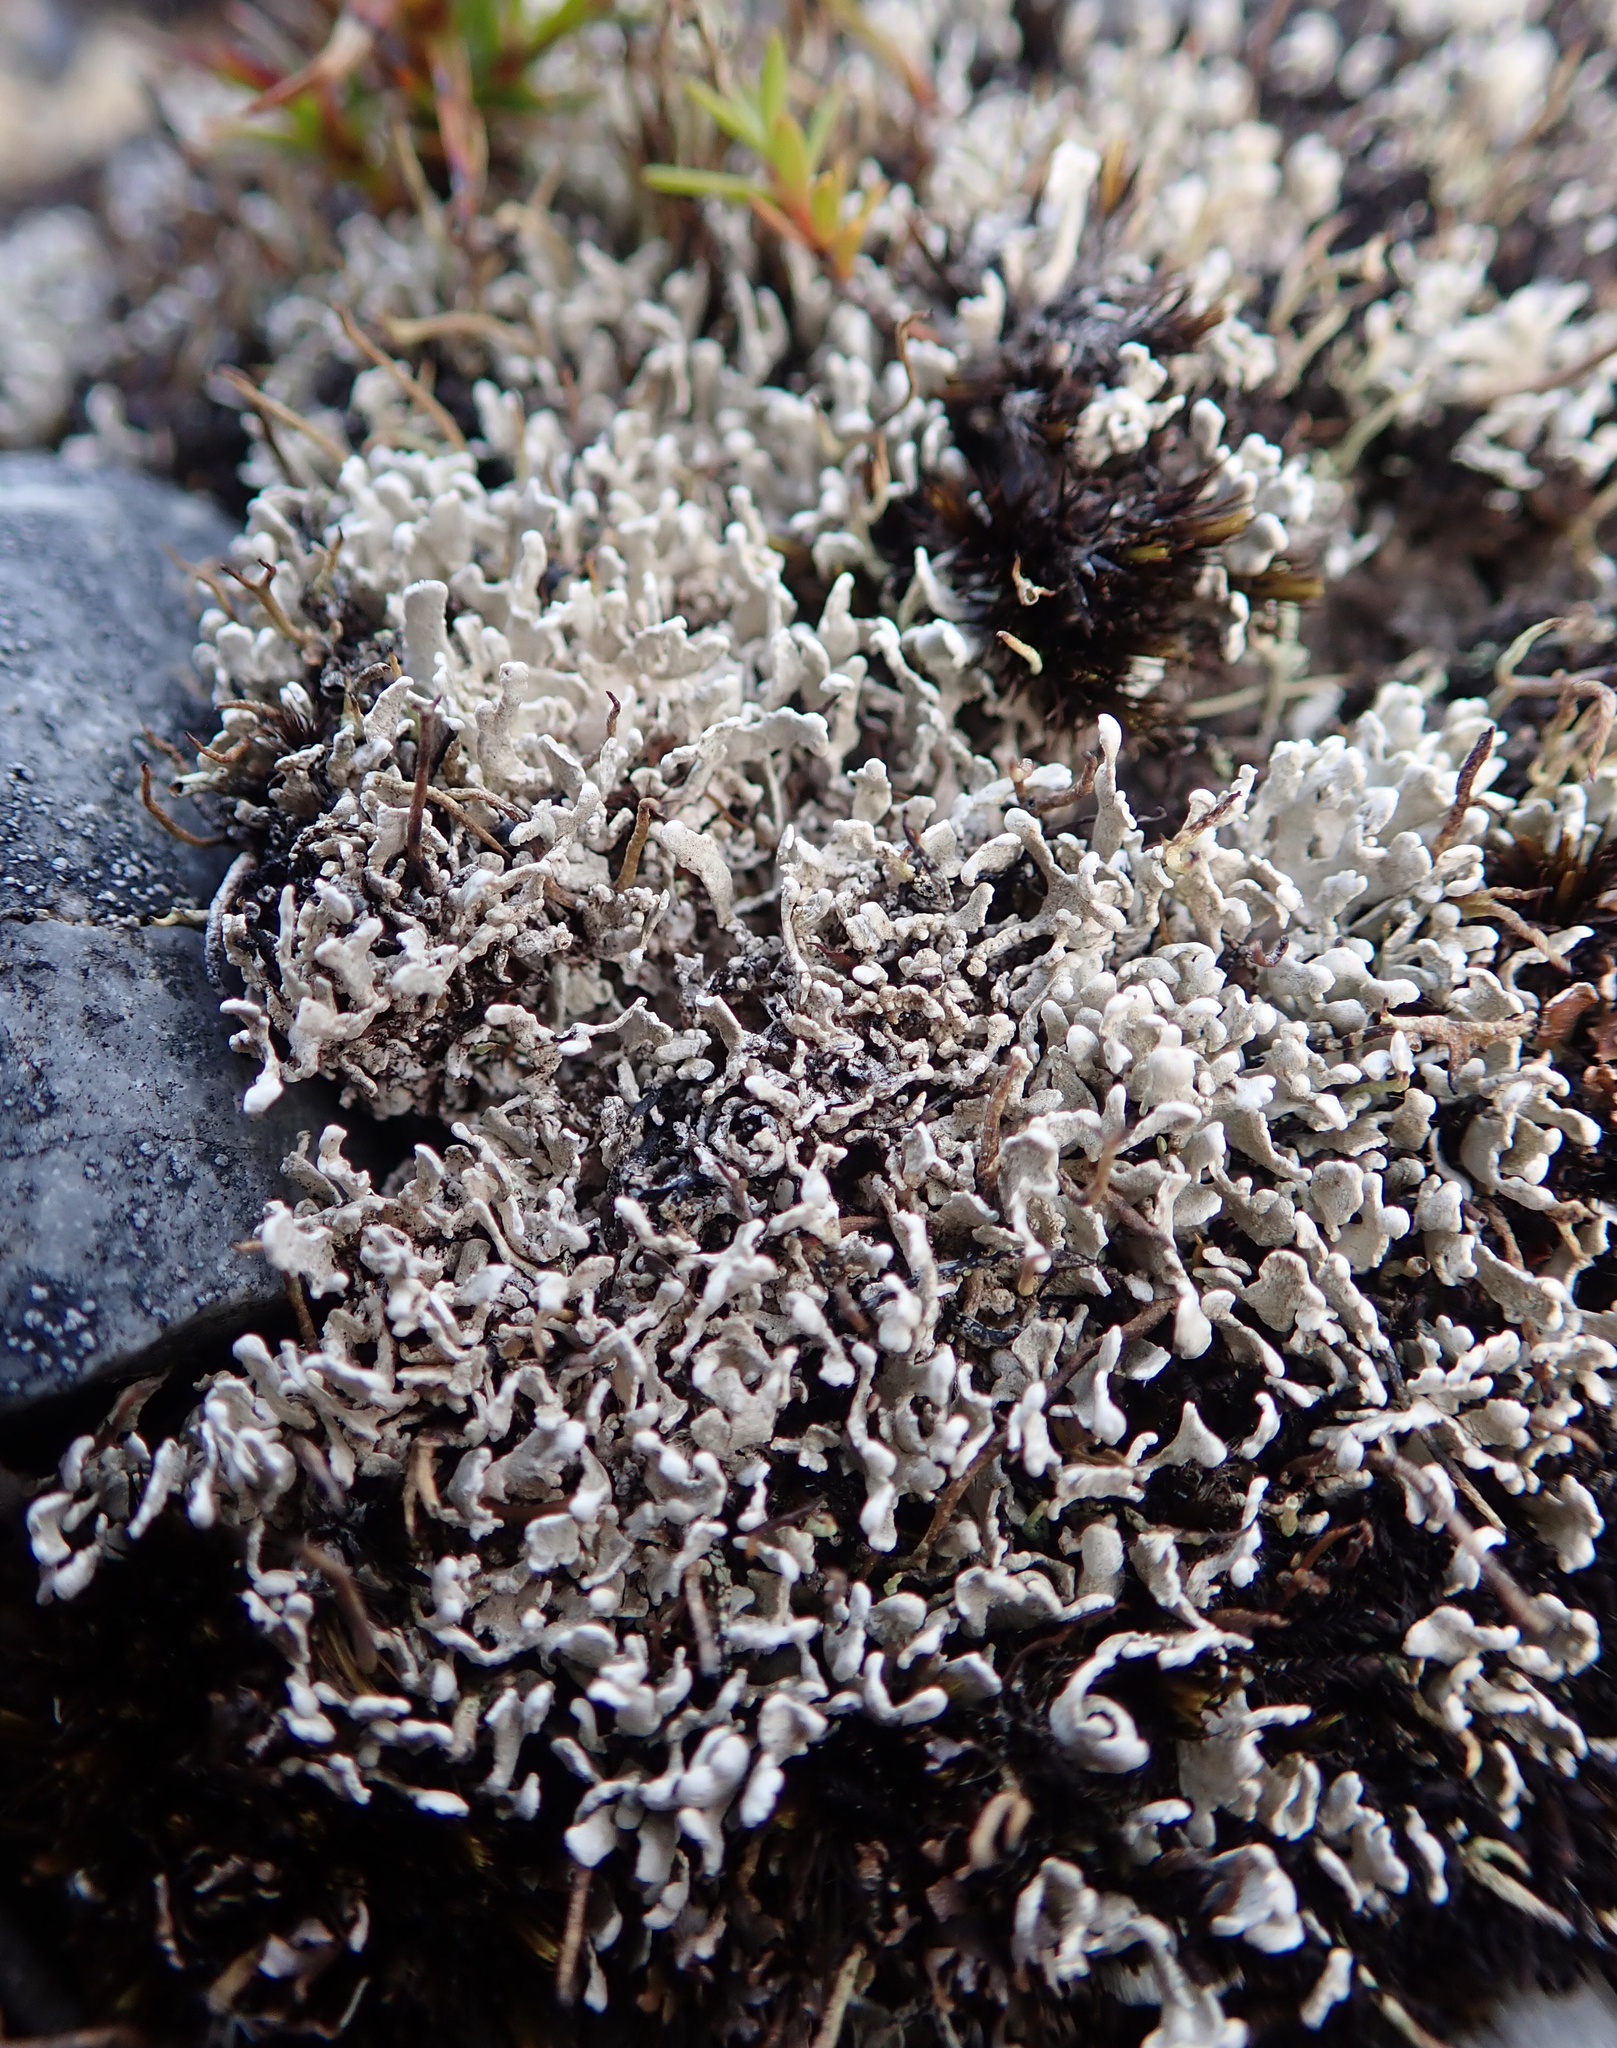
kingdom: Fungi
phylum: Ascomycota
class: Lecanoromycetes
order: Pertusariales
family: Icmadophilaceae
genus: Siphula
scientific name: Siphula decumbens
